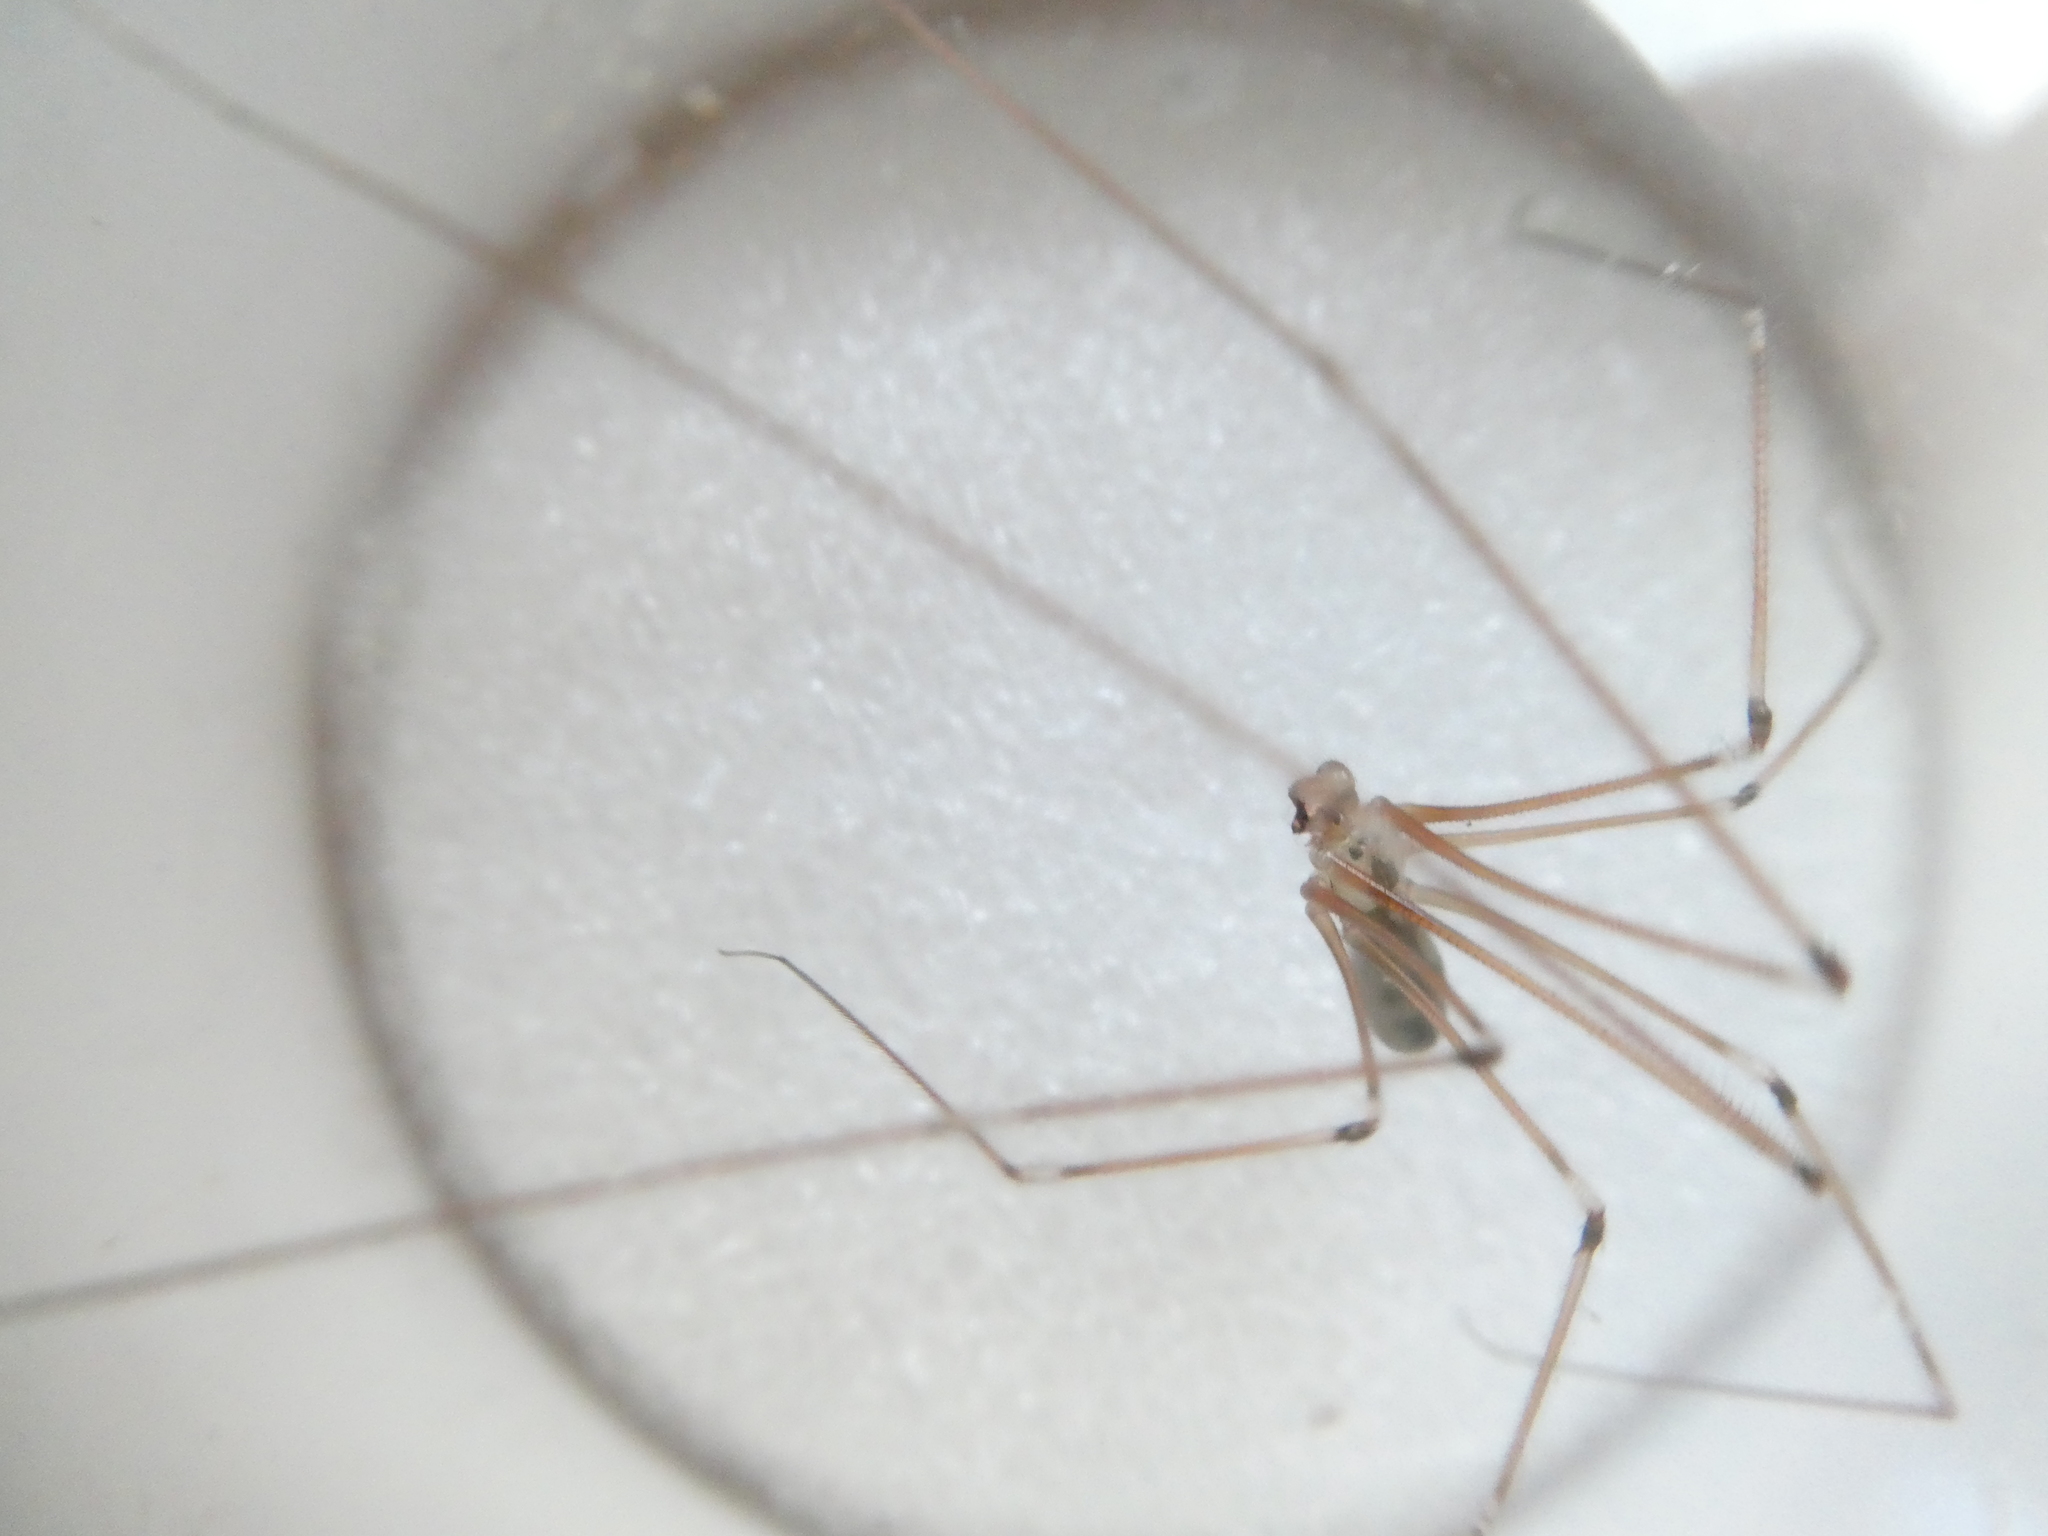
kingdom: Animalia
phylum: Arthropoda
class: Arachnida
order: Araneae
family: Pholcidae
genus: Pholcus
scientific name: Pholcus phalangioides
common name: Longbodied cellar spider
